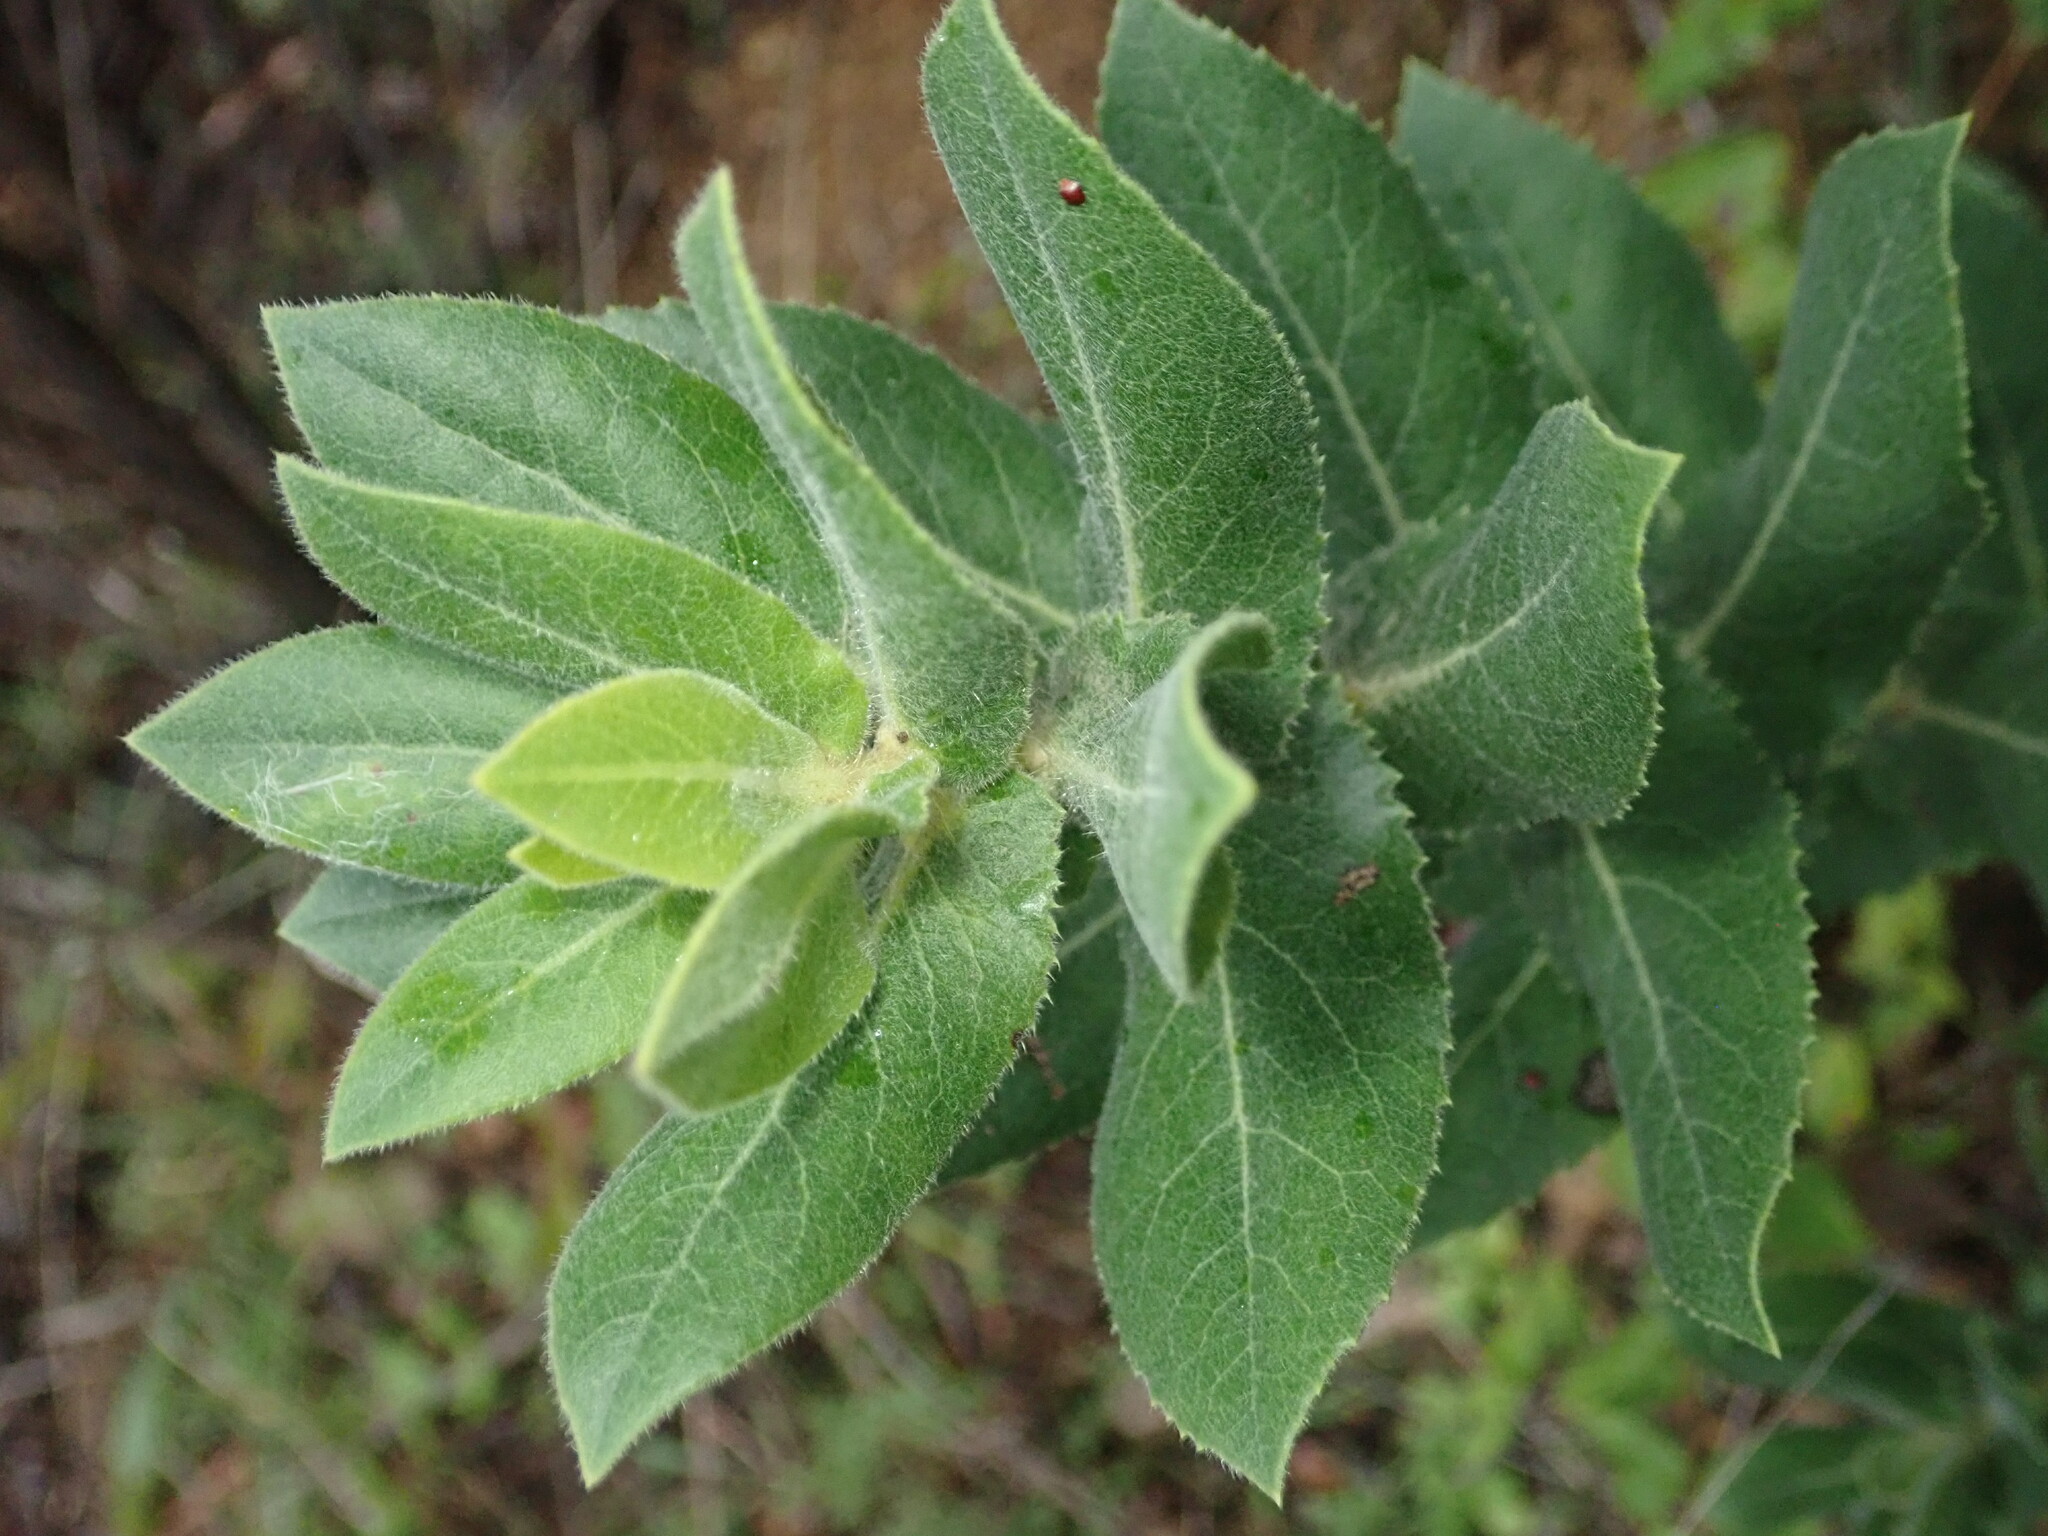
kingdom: Plantae
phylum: Tracheophyta
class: Magnoliopsida
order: Ericales
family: Ericaceae
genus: Arctostaphylos
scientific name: Arctostaphylos regismontana
